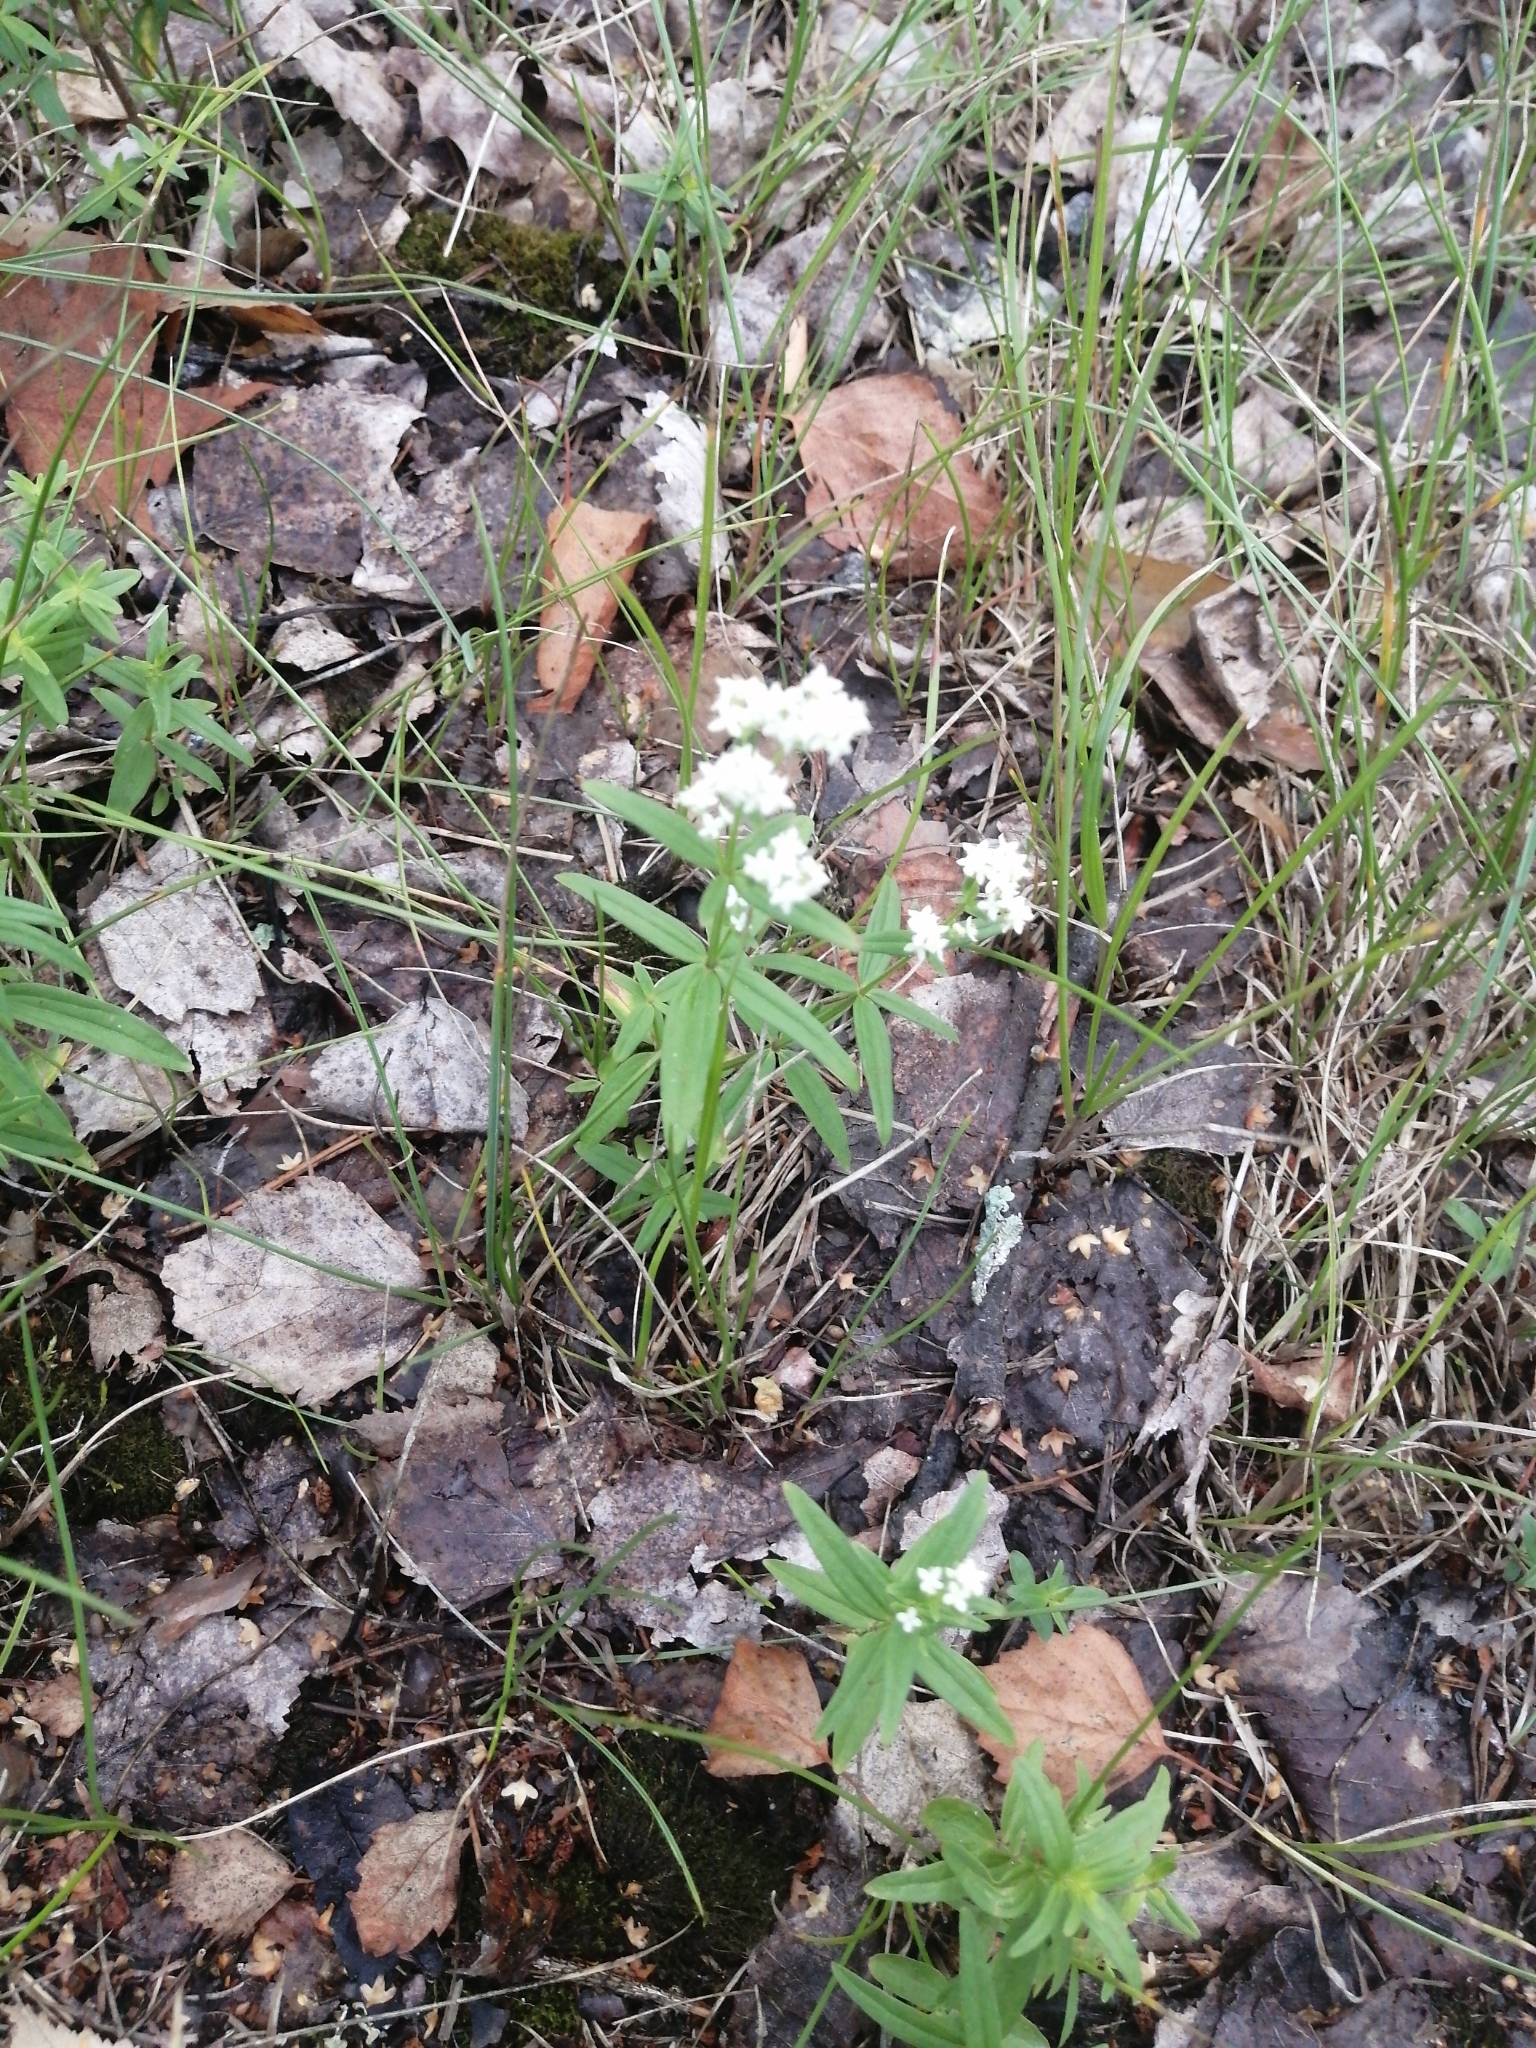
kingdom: Plantae
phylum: Tracheophyta
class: Magnoliopsida
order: Gentianales
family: Rubiaceae
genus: Galium
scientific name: Galium boreale
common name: Northern bedstraw
